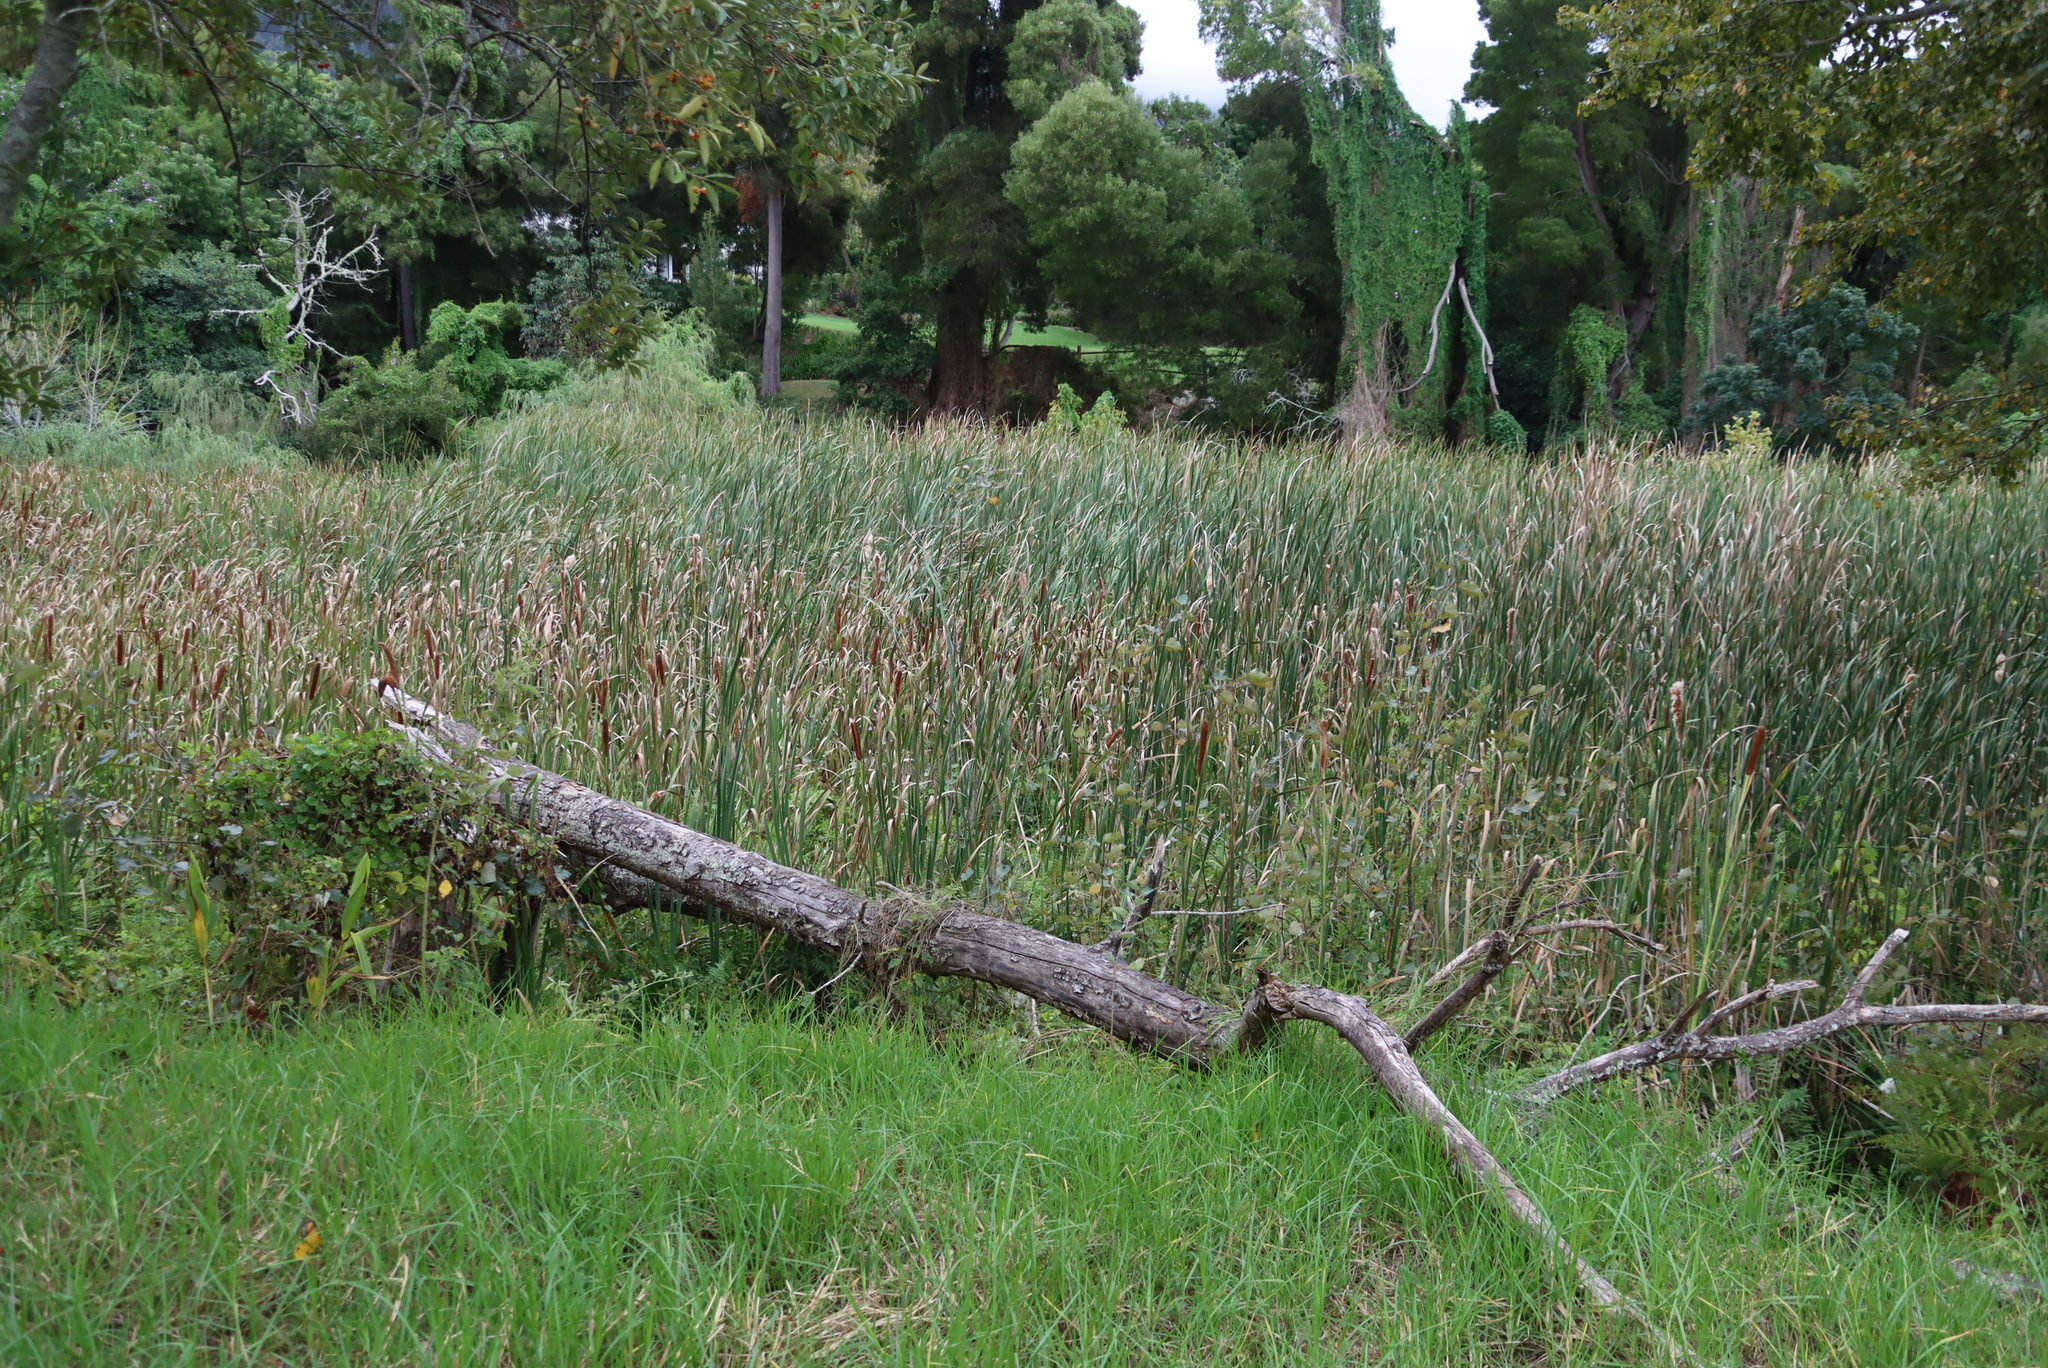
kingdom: Plantae
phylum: Tracheophyta
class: Liliopsida
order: Poales
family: Typhaceae
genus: Typha
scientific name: Typha capensis
